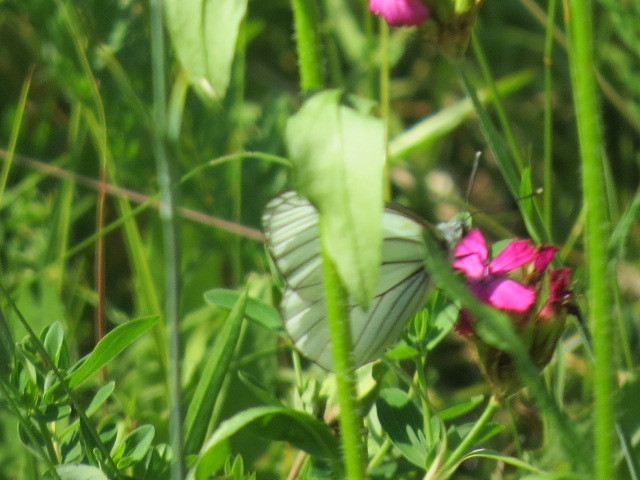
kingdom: Animalia
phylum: Arthropoda
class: Insecta
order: Lepidoptera
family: Pieridae
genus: Aporia
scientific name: Aporia crataegi
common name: Black-veined white
